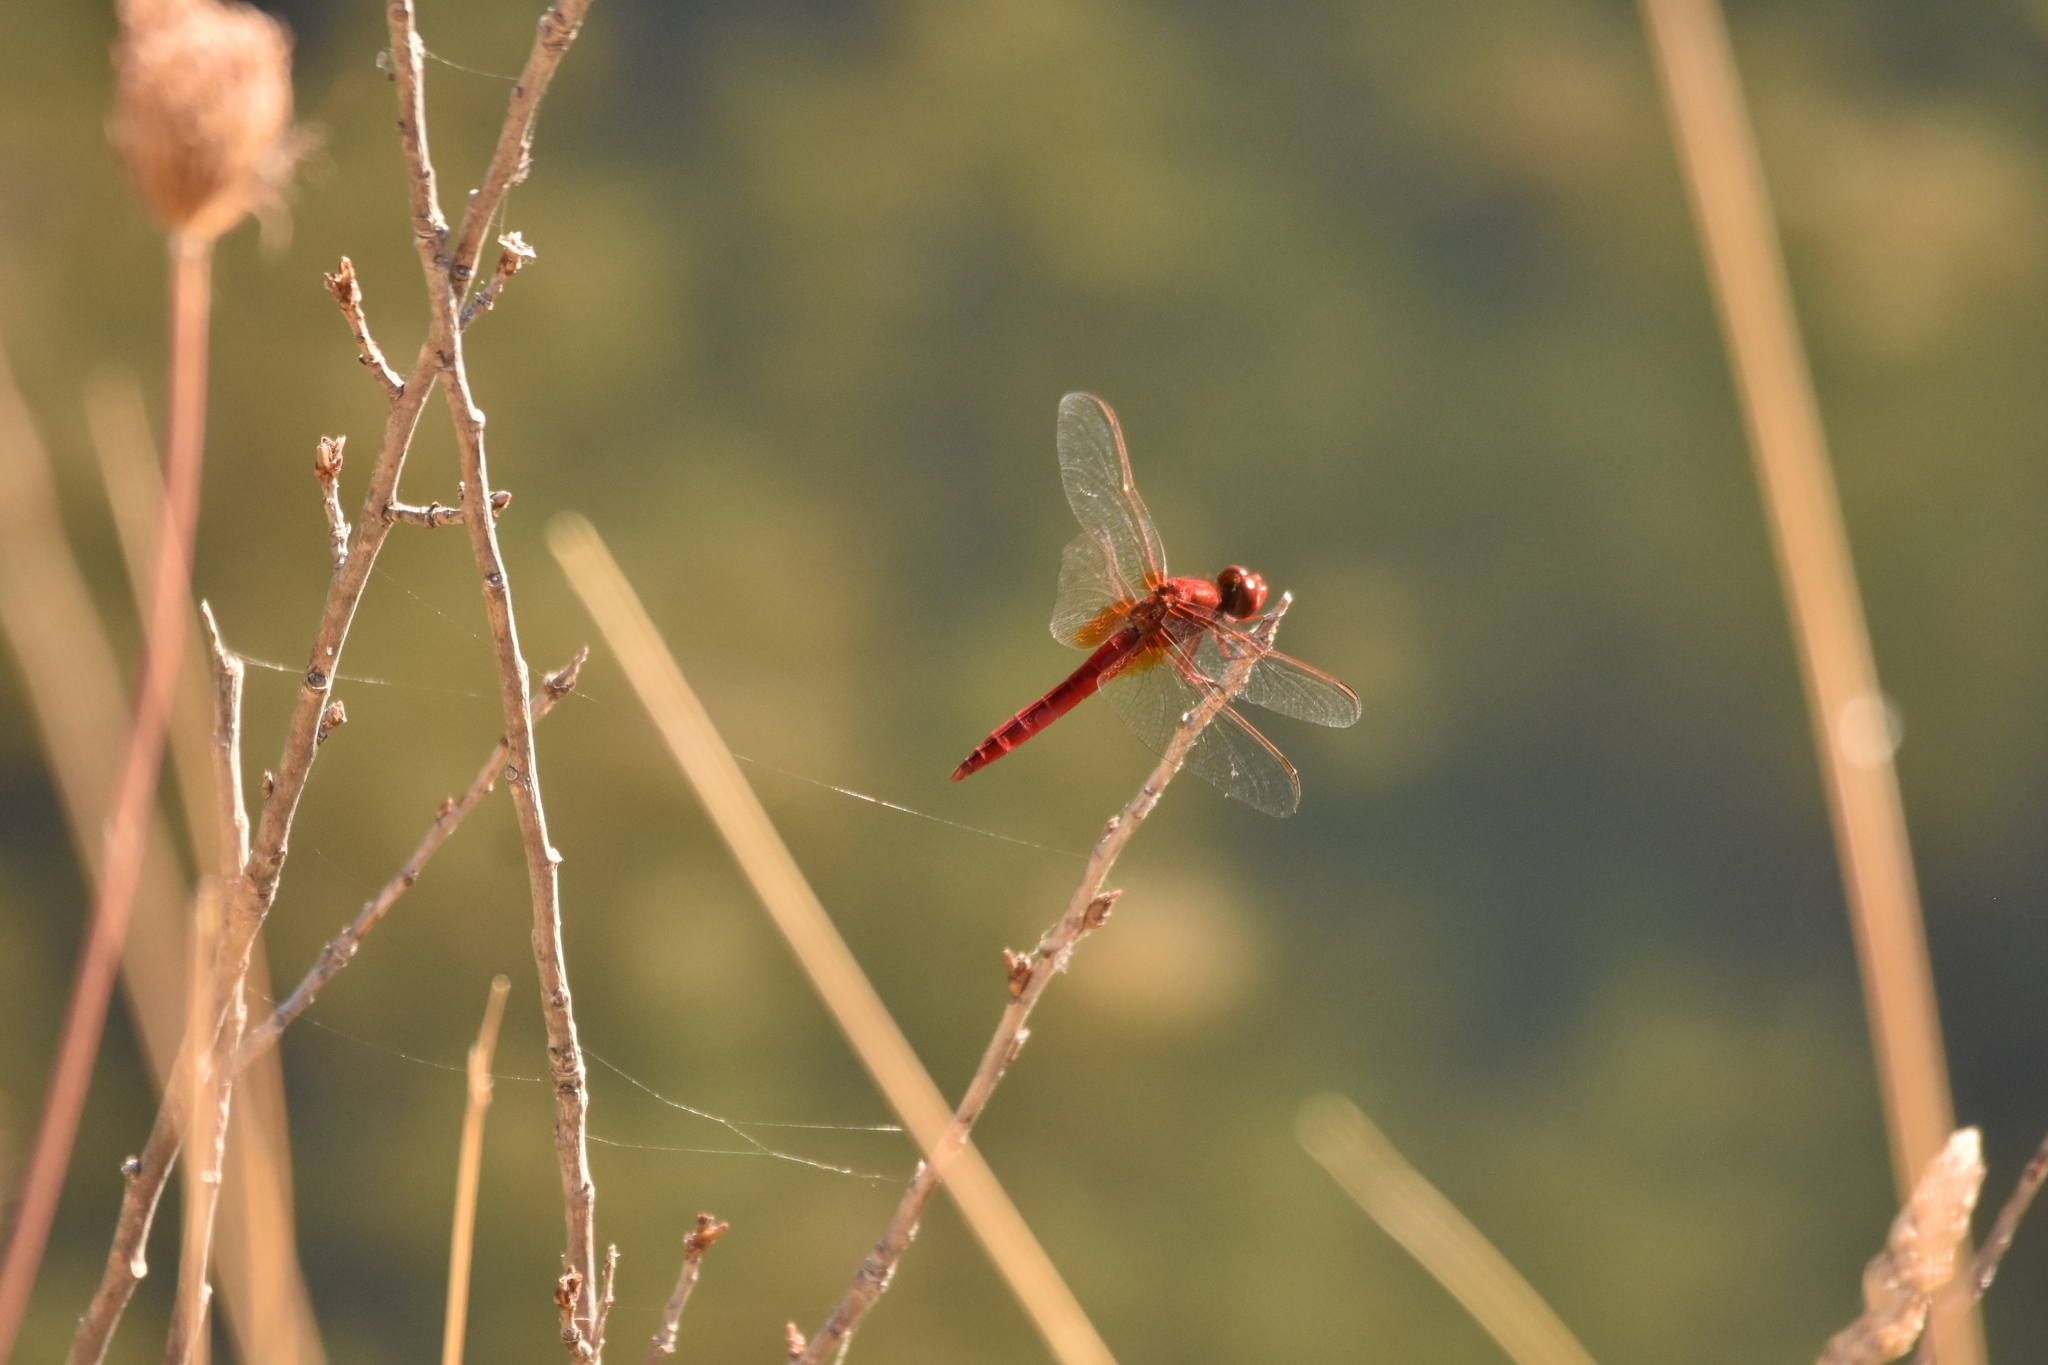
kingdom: Animalia
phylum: Arthropoda
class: Insecta
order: Odonata
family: Libellulidae
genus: Crocothemis
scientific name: Crocothemis erythraea
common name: Scarlet dragonfly
